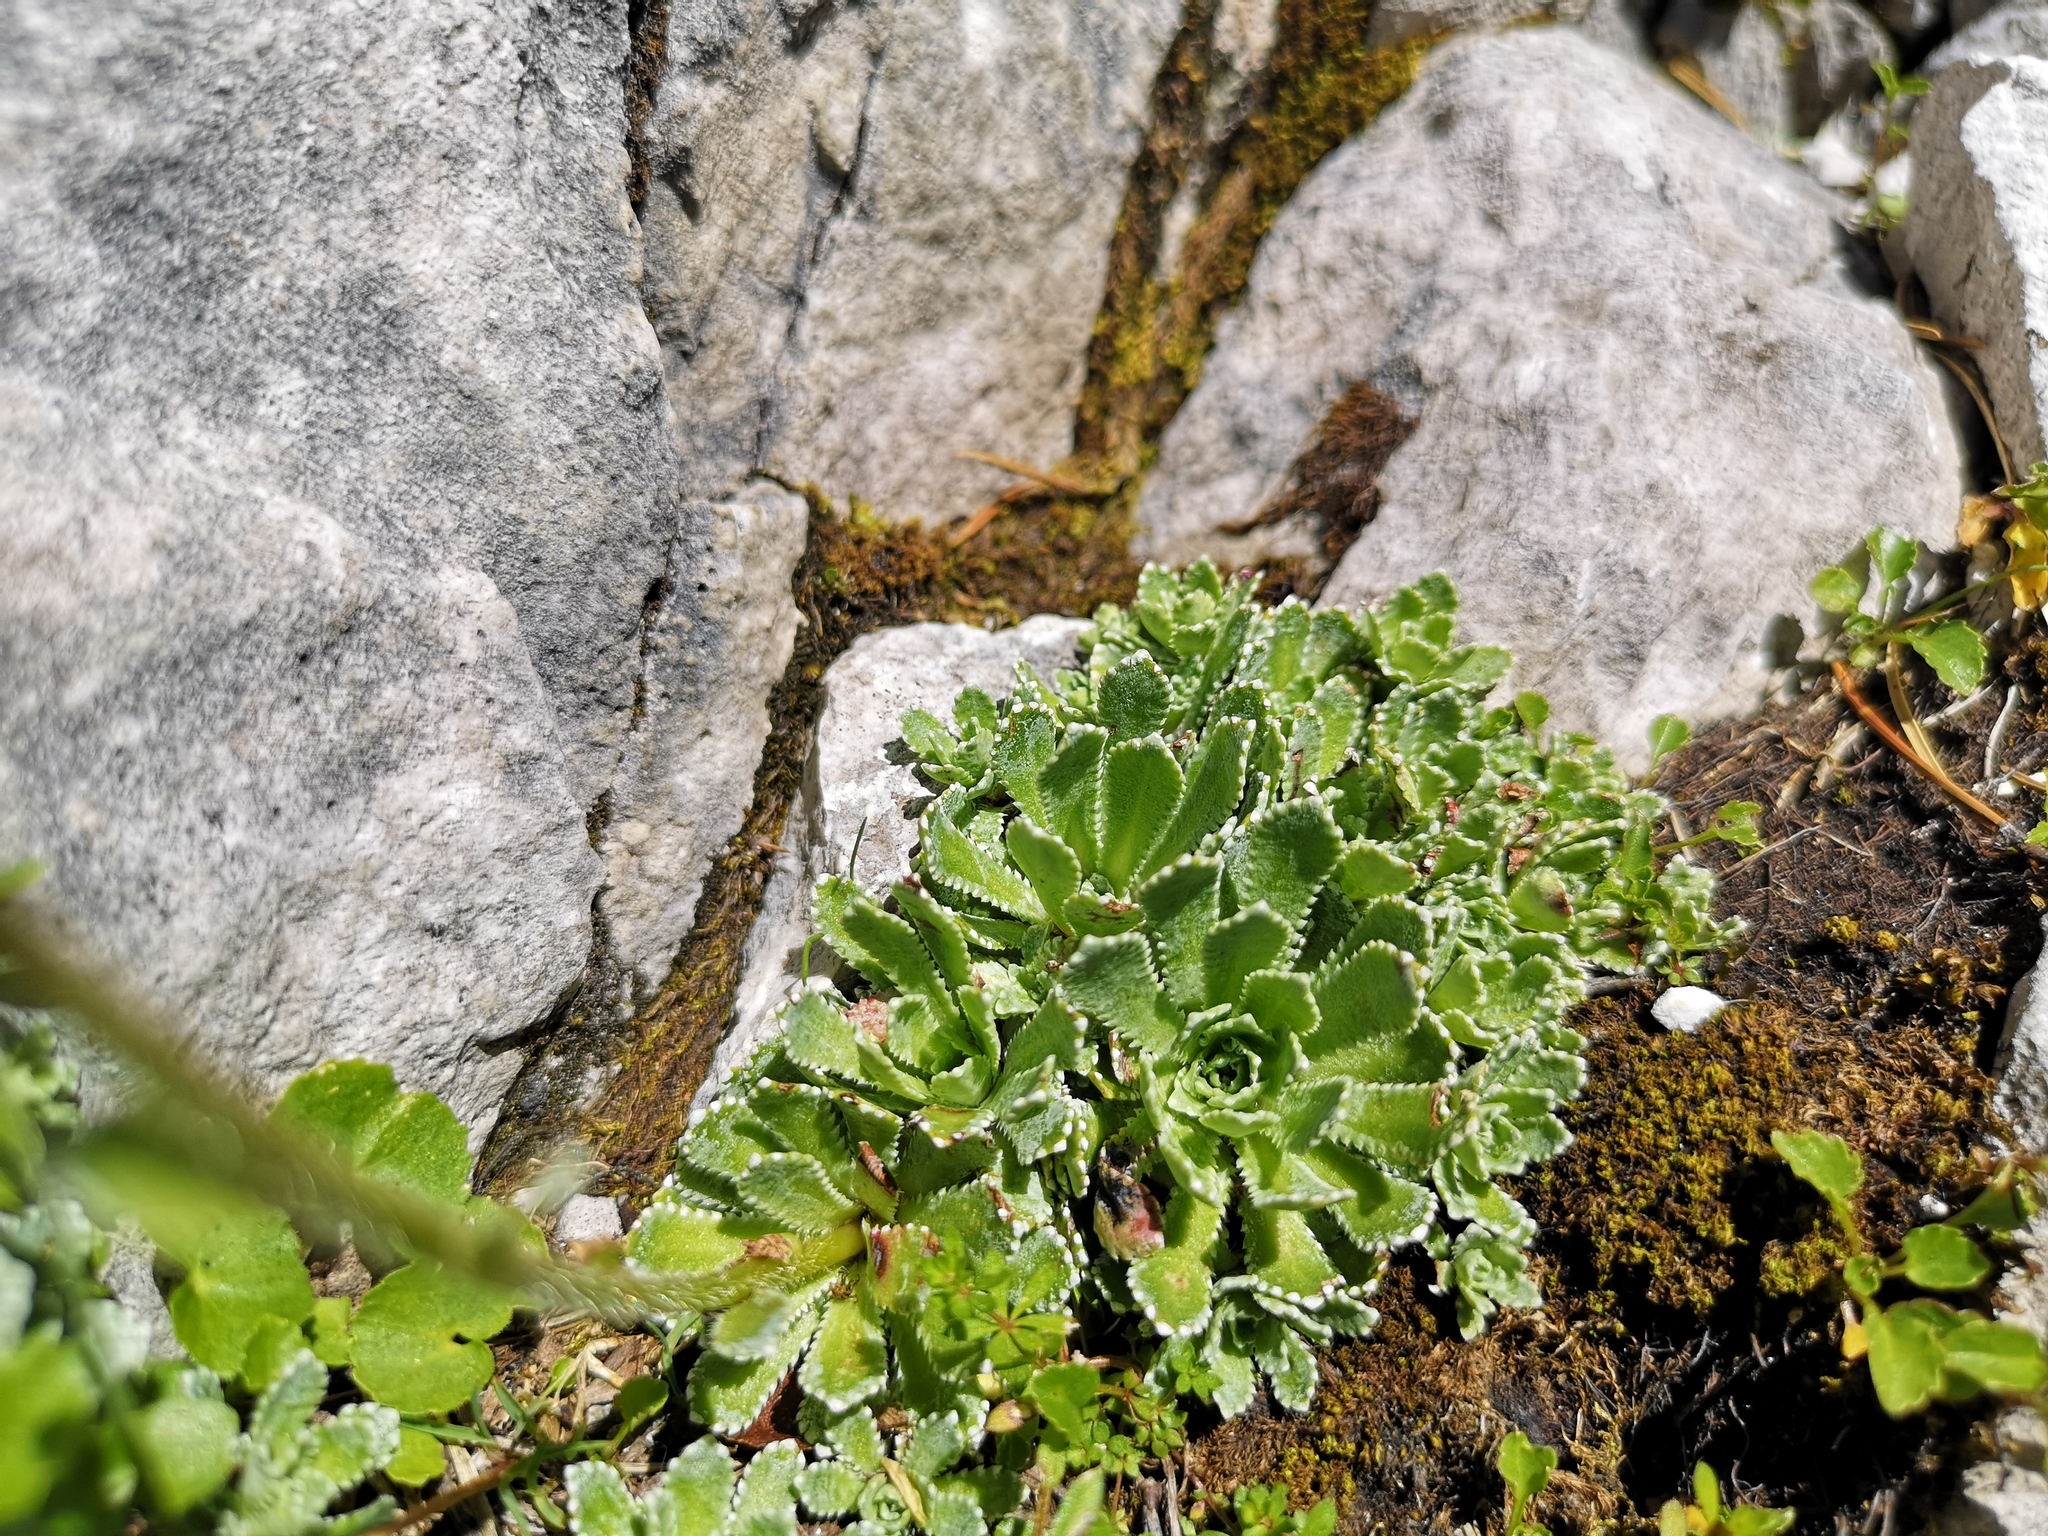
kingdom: Plantae
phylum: Tracheophyta
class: Magnoliopsida
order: Saxifragales
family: Saxifragaceae
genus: Saxifraga
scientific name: Saxifraga paniculata
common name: Livelong saxifrage
